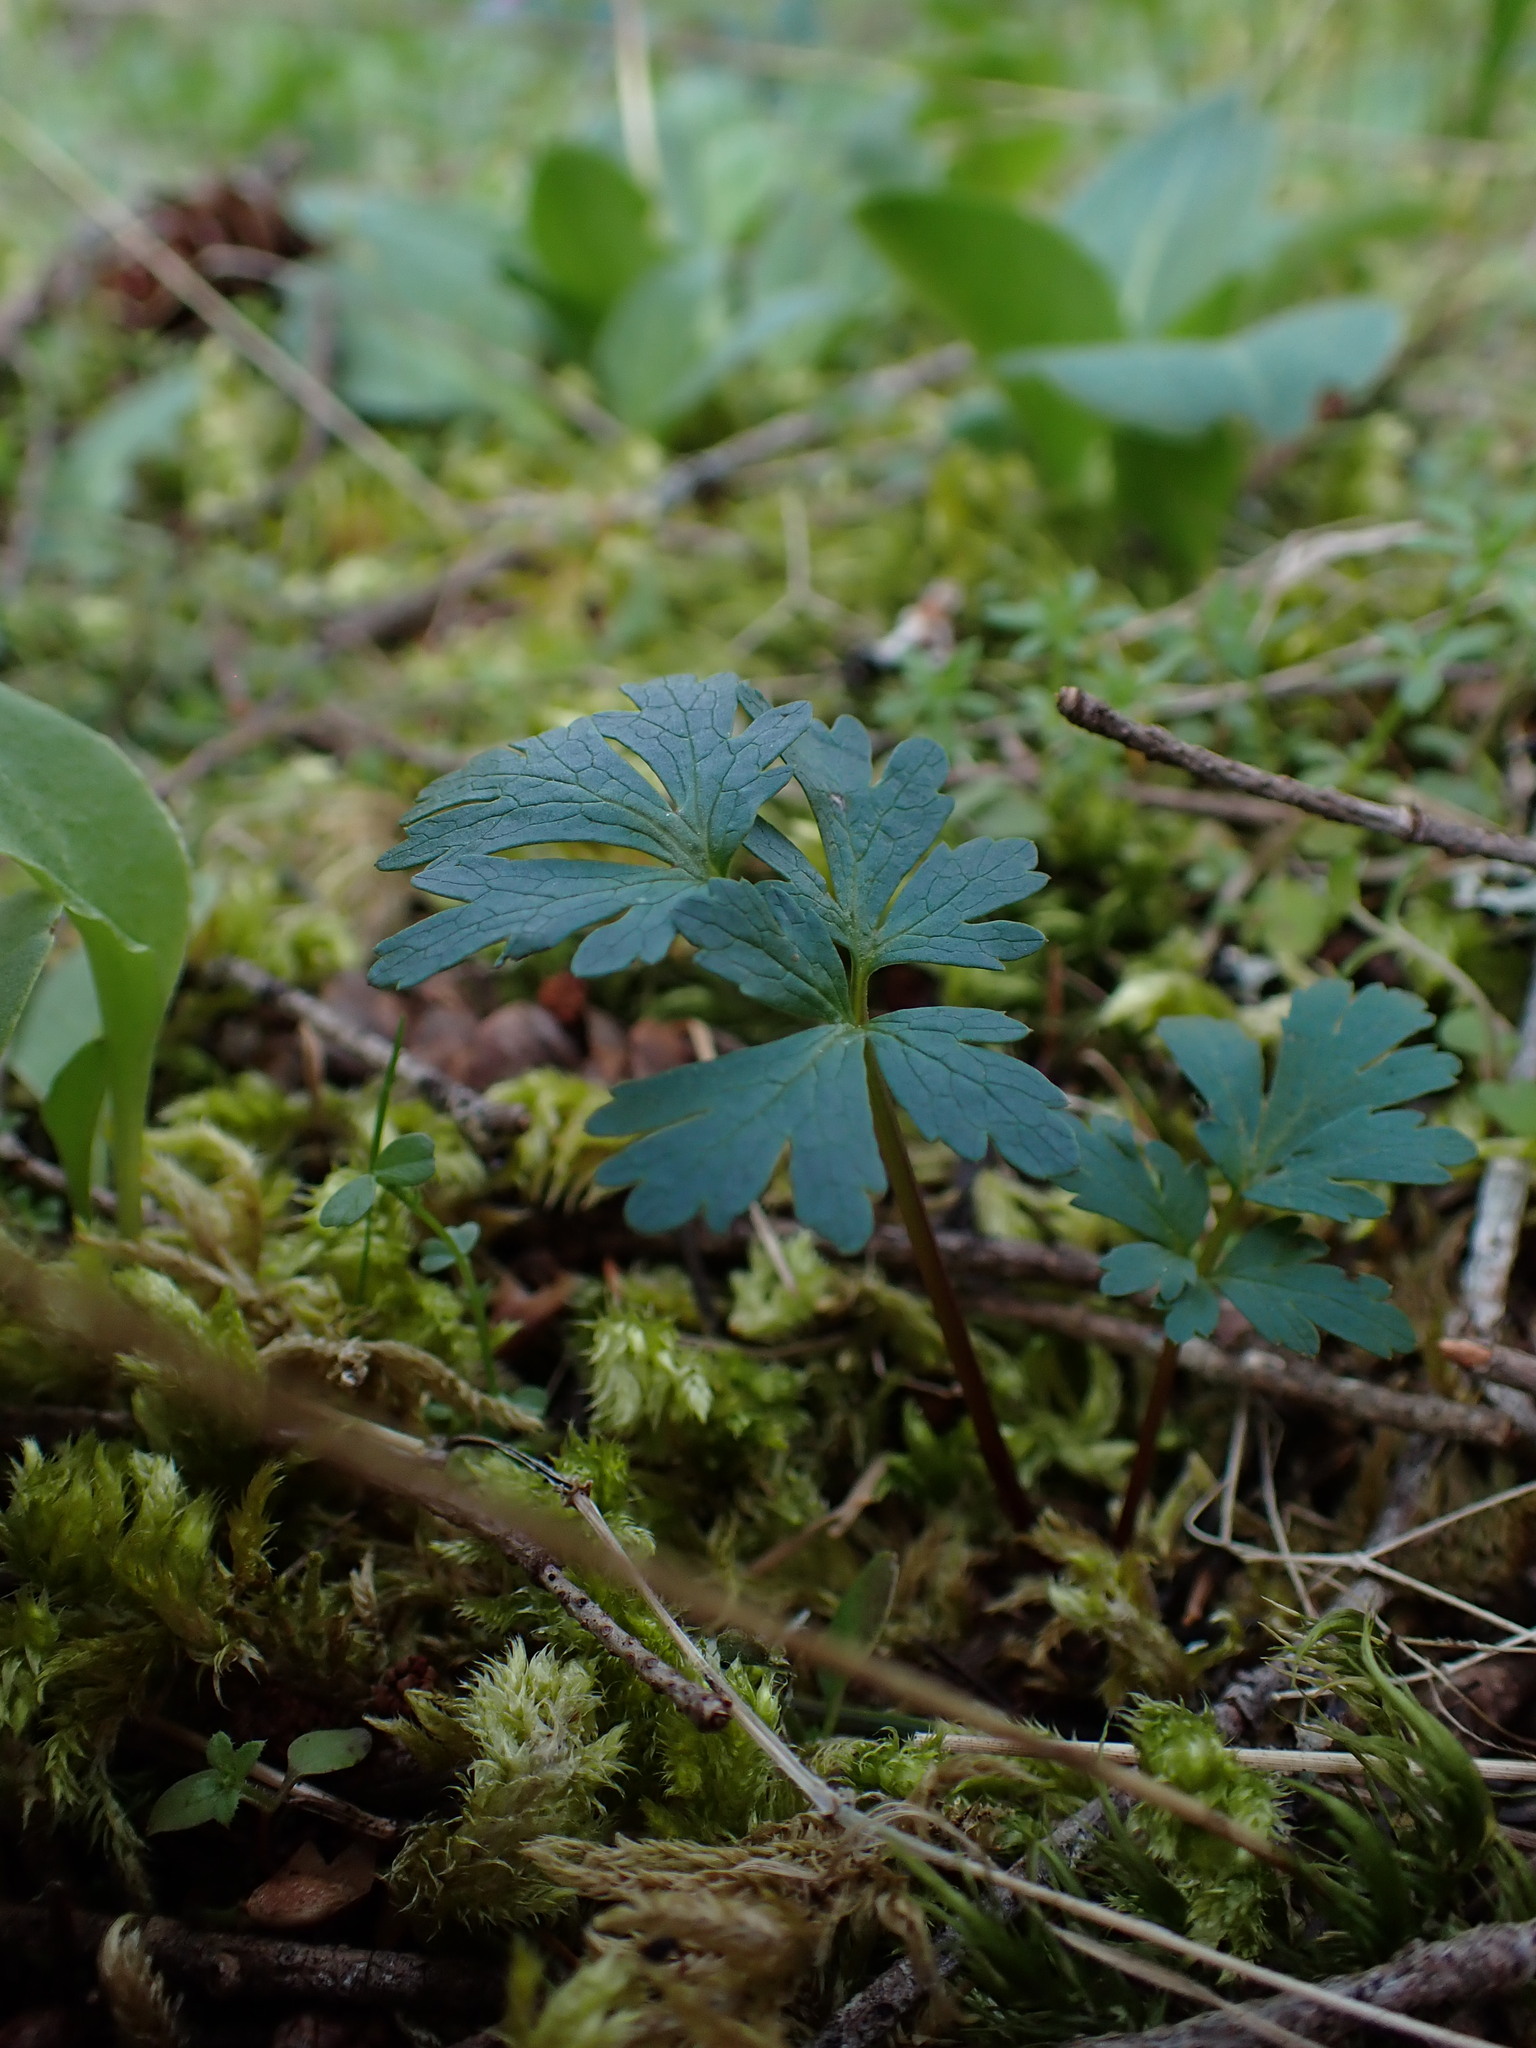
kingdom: Plantae
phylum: Tracheophyta
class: Magnoliopsida
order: Apiales
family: Apiaceae
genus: Sanicula
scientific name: Sanicula graveolens
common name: Sierra sanicle
